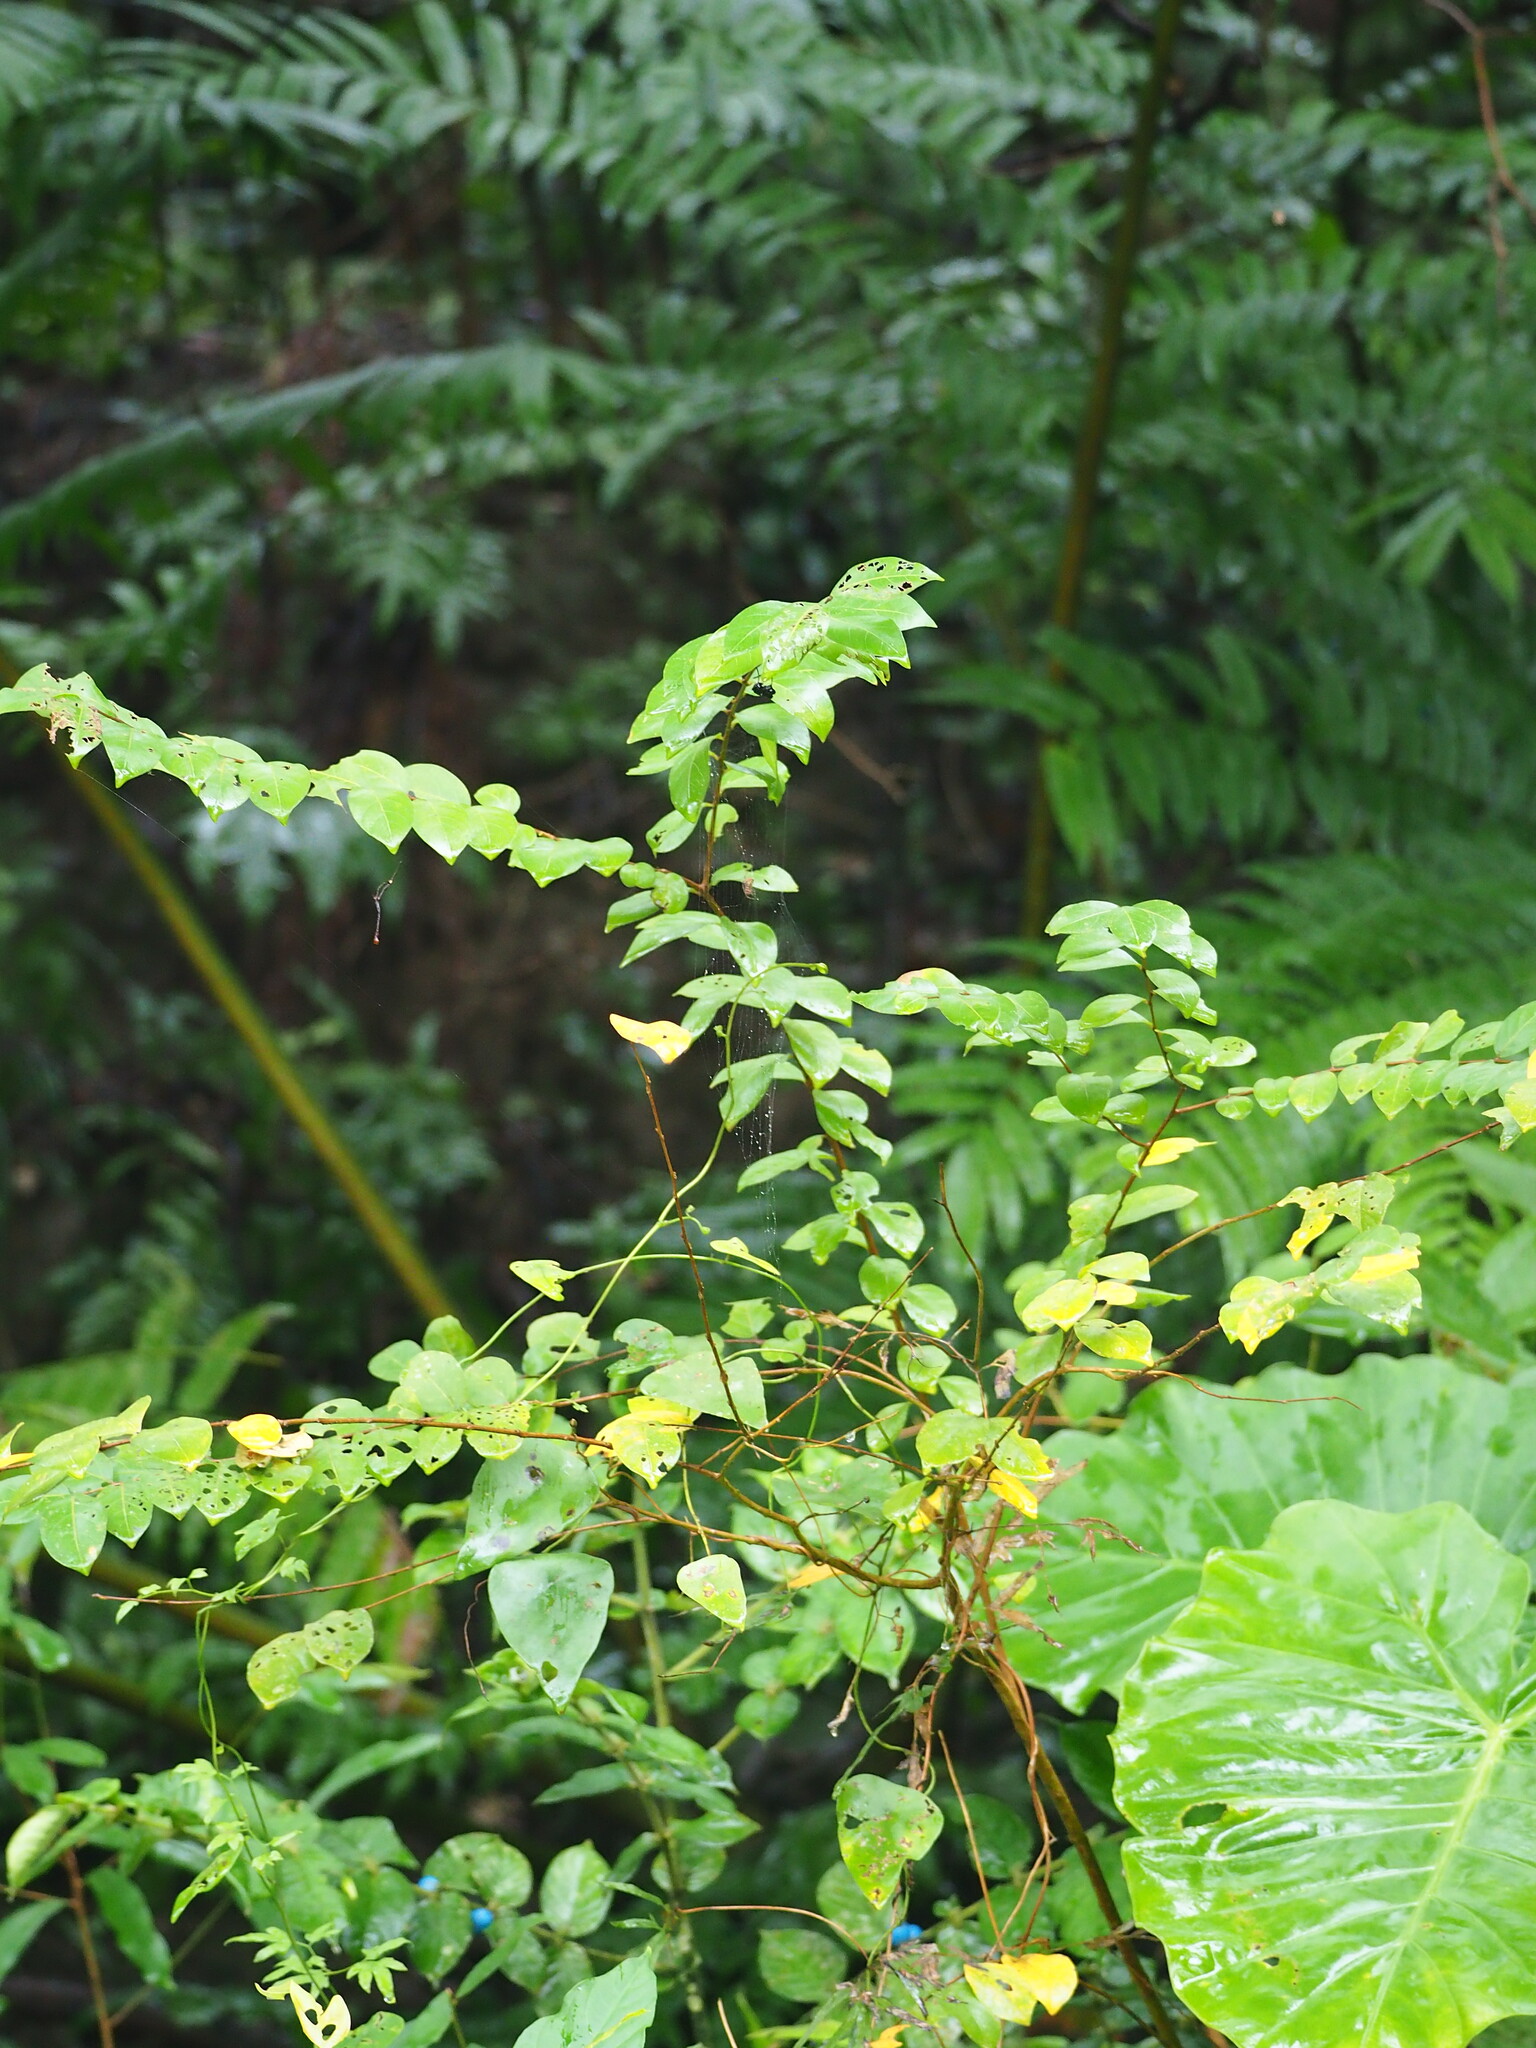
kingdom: Plantae
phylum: Tracheophyta
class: Magnoliopsida
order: Myrtales
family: Lythraceae
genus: Lagerstroemia
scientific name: Lagerstroemia subcostata
